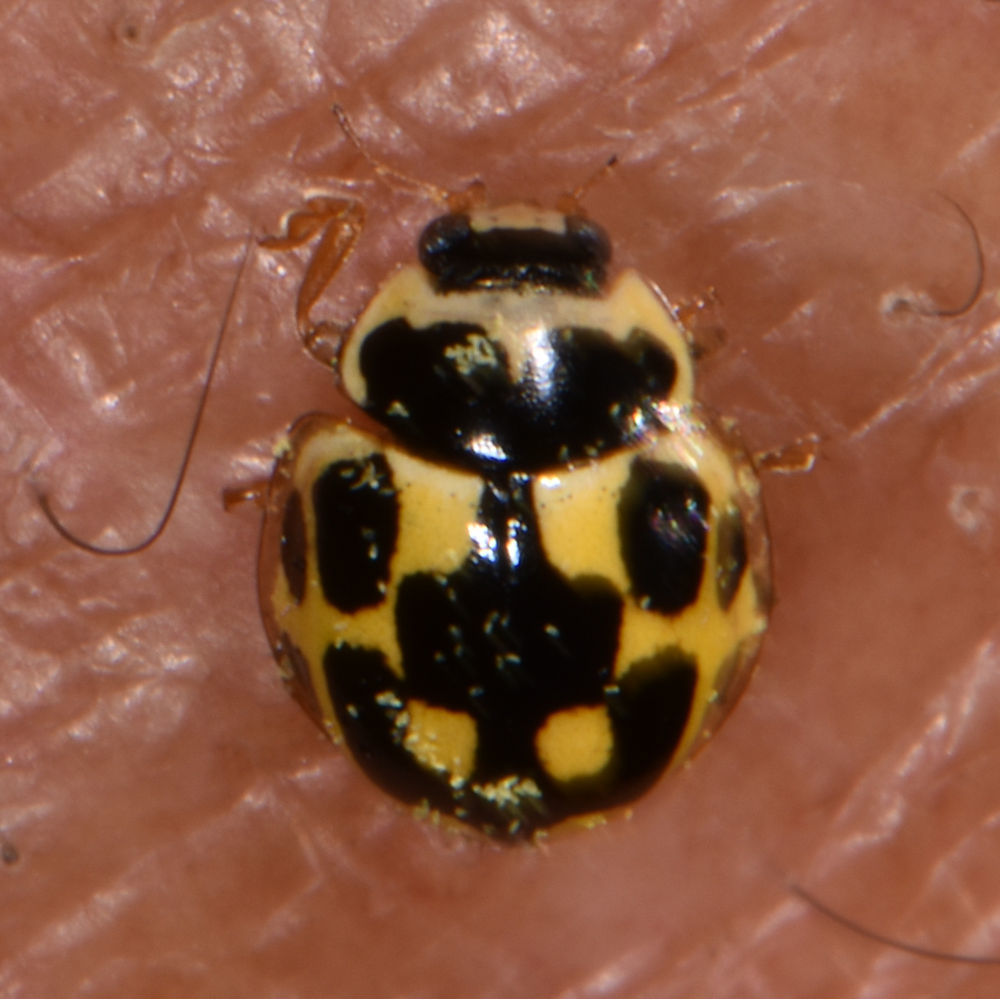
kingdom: Animalia
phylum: Arthropoda
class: Insecta
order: Coleoptera
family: Coccinellidae
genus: Propylaea
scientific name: Propylaea quatuordecimpunctata
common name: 14-spotted ladybird beetle
